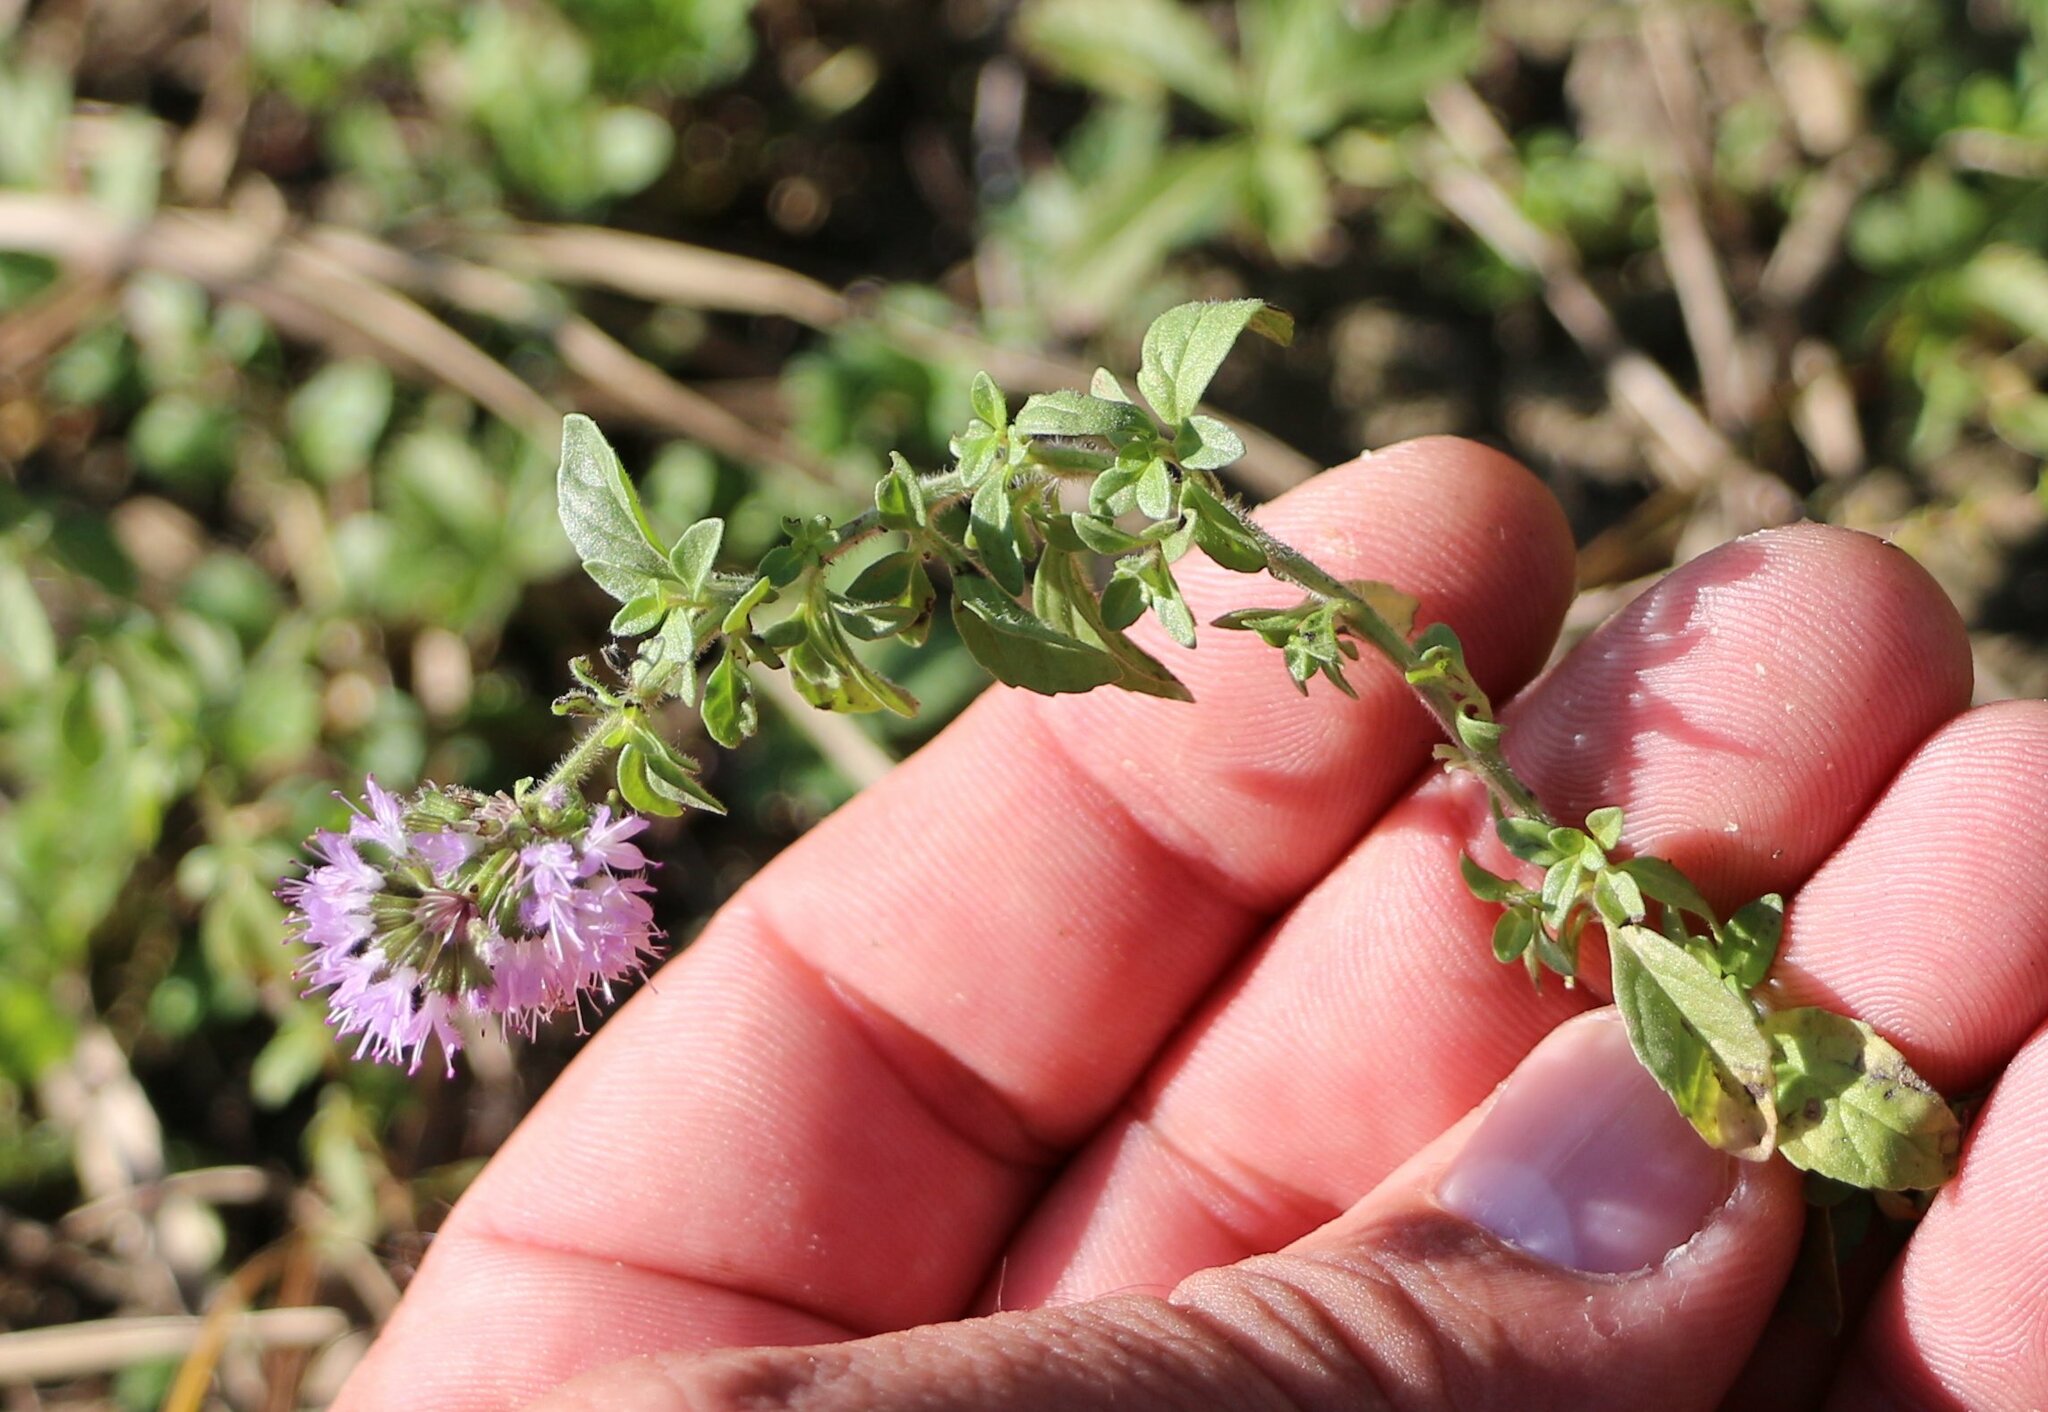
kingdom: Plantae
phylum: Tracheophyta
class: Magnoliopsida
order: Lamiales
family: Lamiaceae
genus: Mentha
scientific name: Mentha pulegium
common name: Pennyroyal
